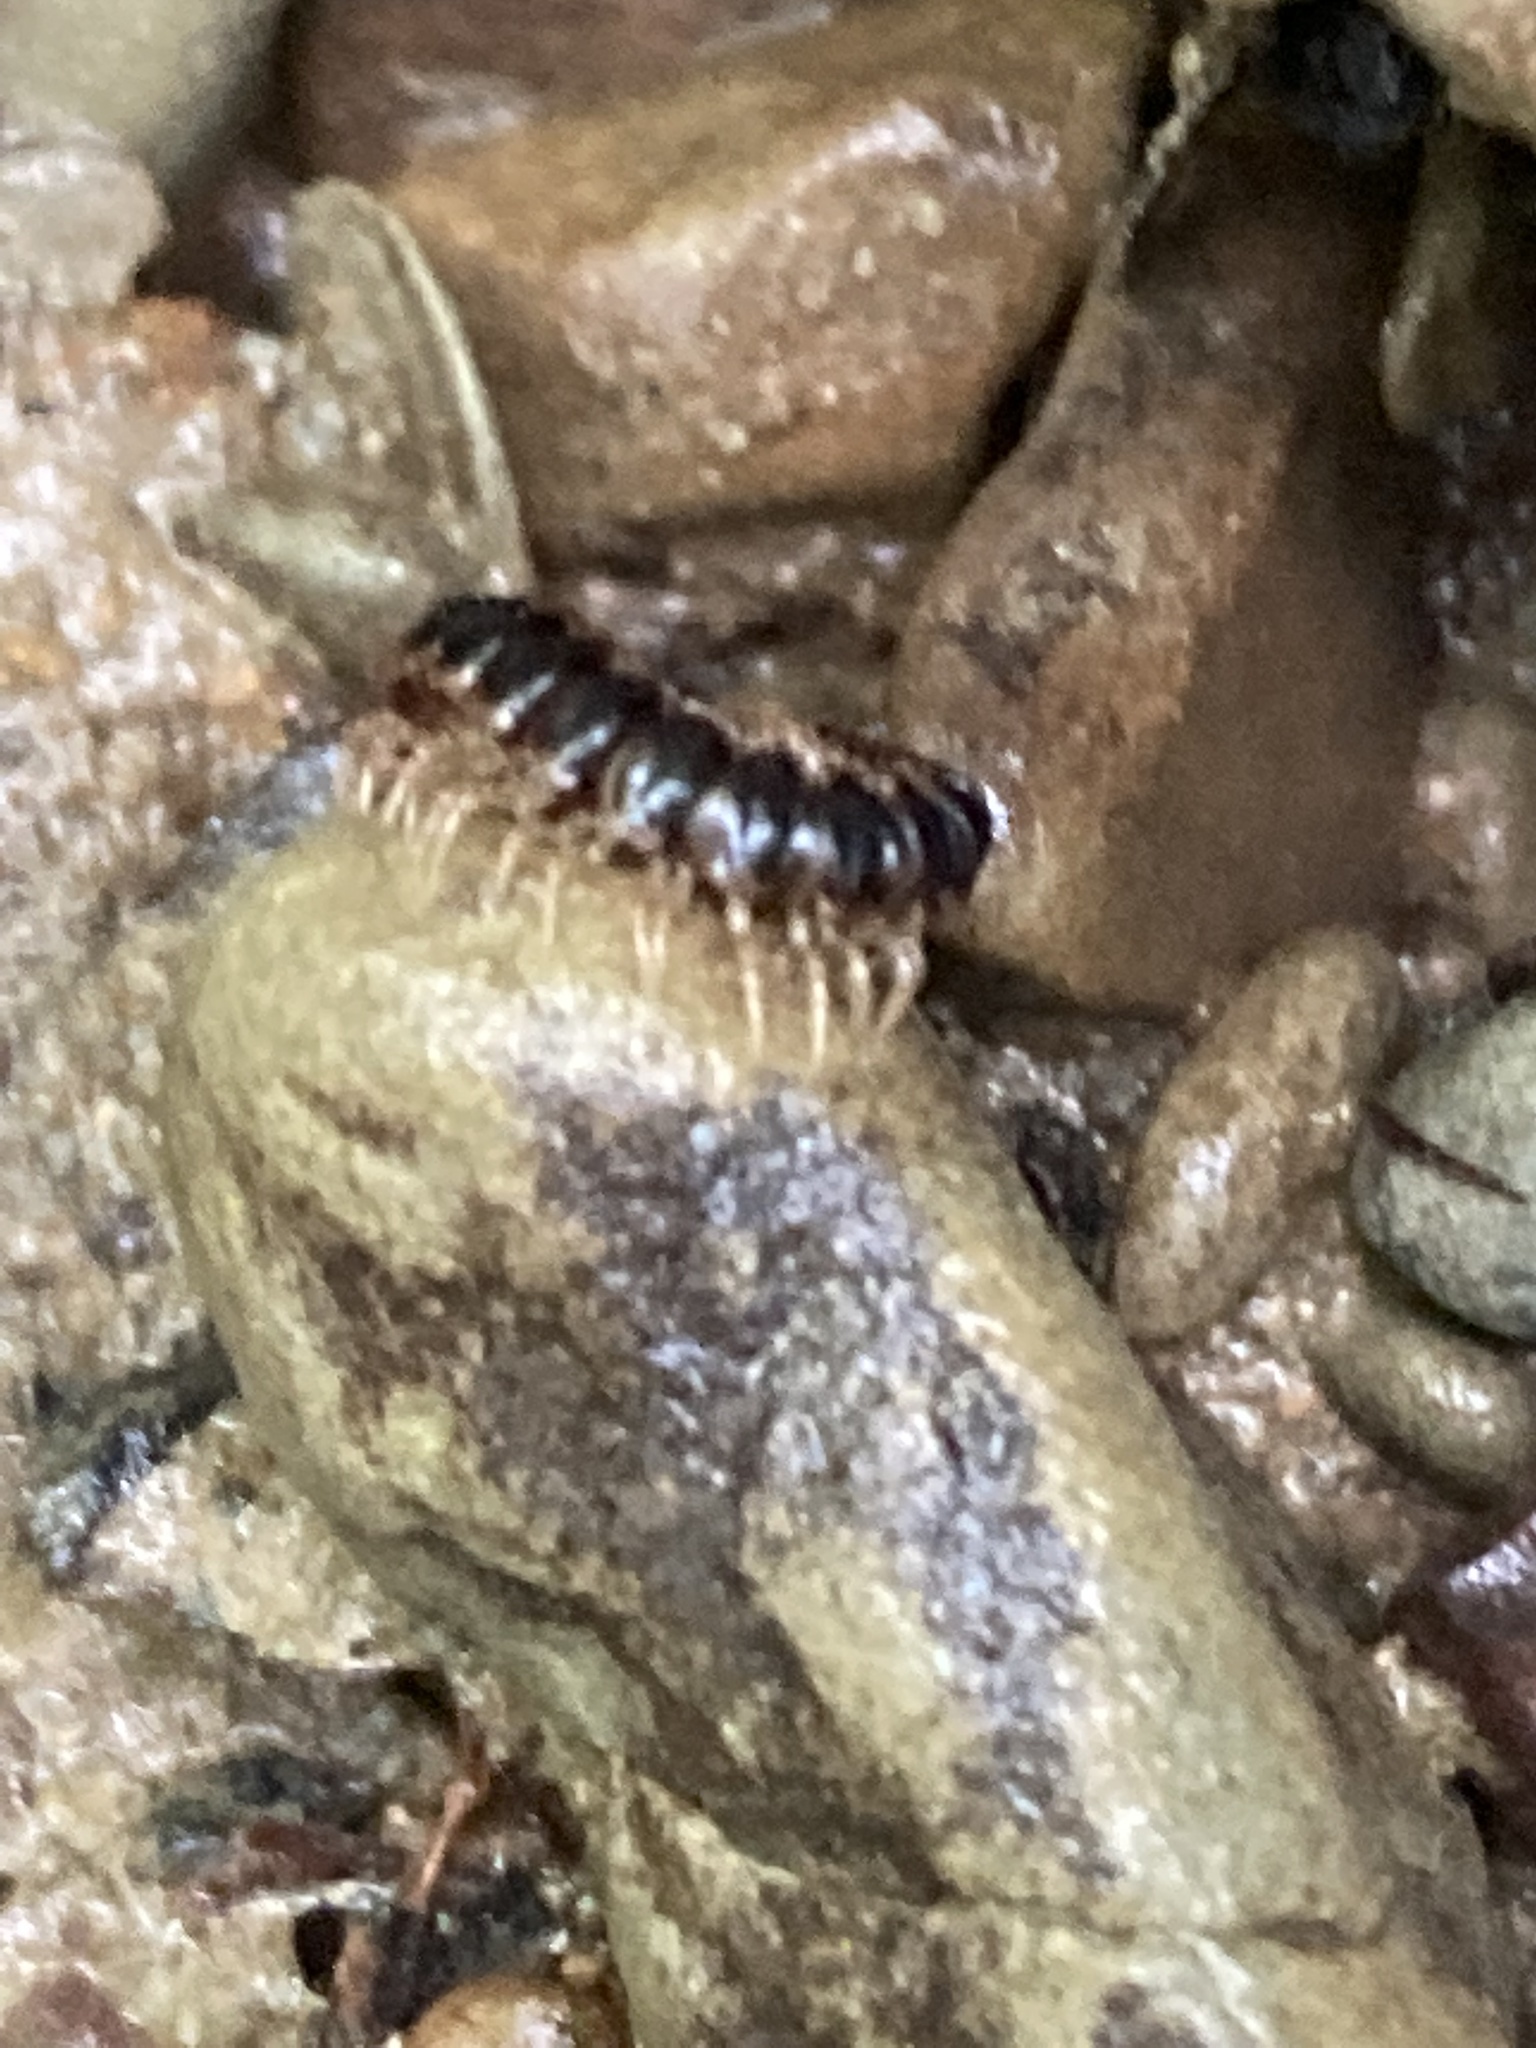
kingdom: Animalia
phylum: Arthropoda
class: Diplopoda
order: Polydesmida
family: Paradoxosomatidae
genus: Oxidus
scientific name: Oxidus gracilis
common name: Greenhouse millipede
